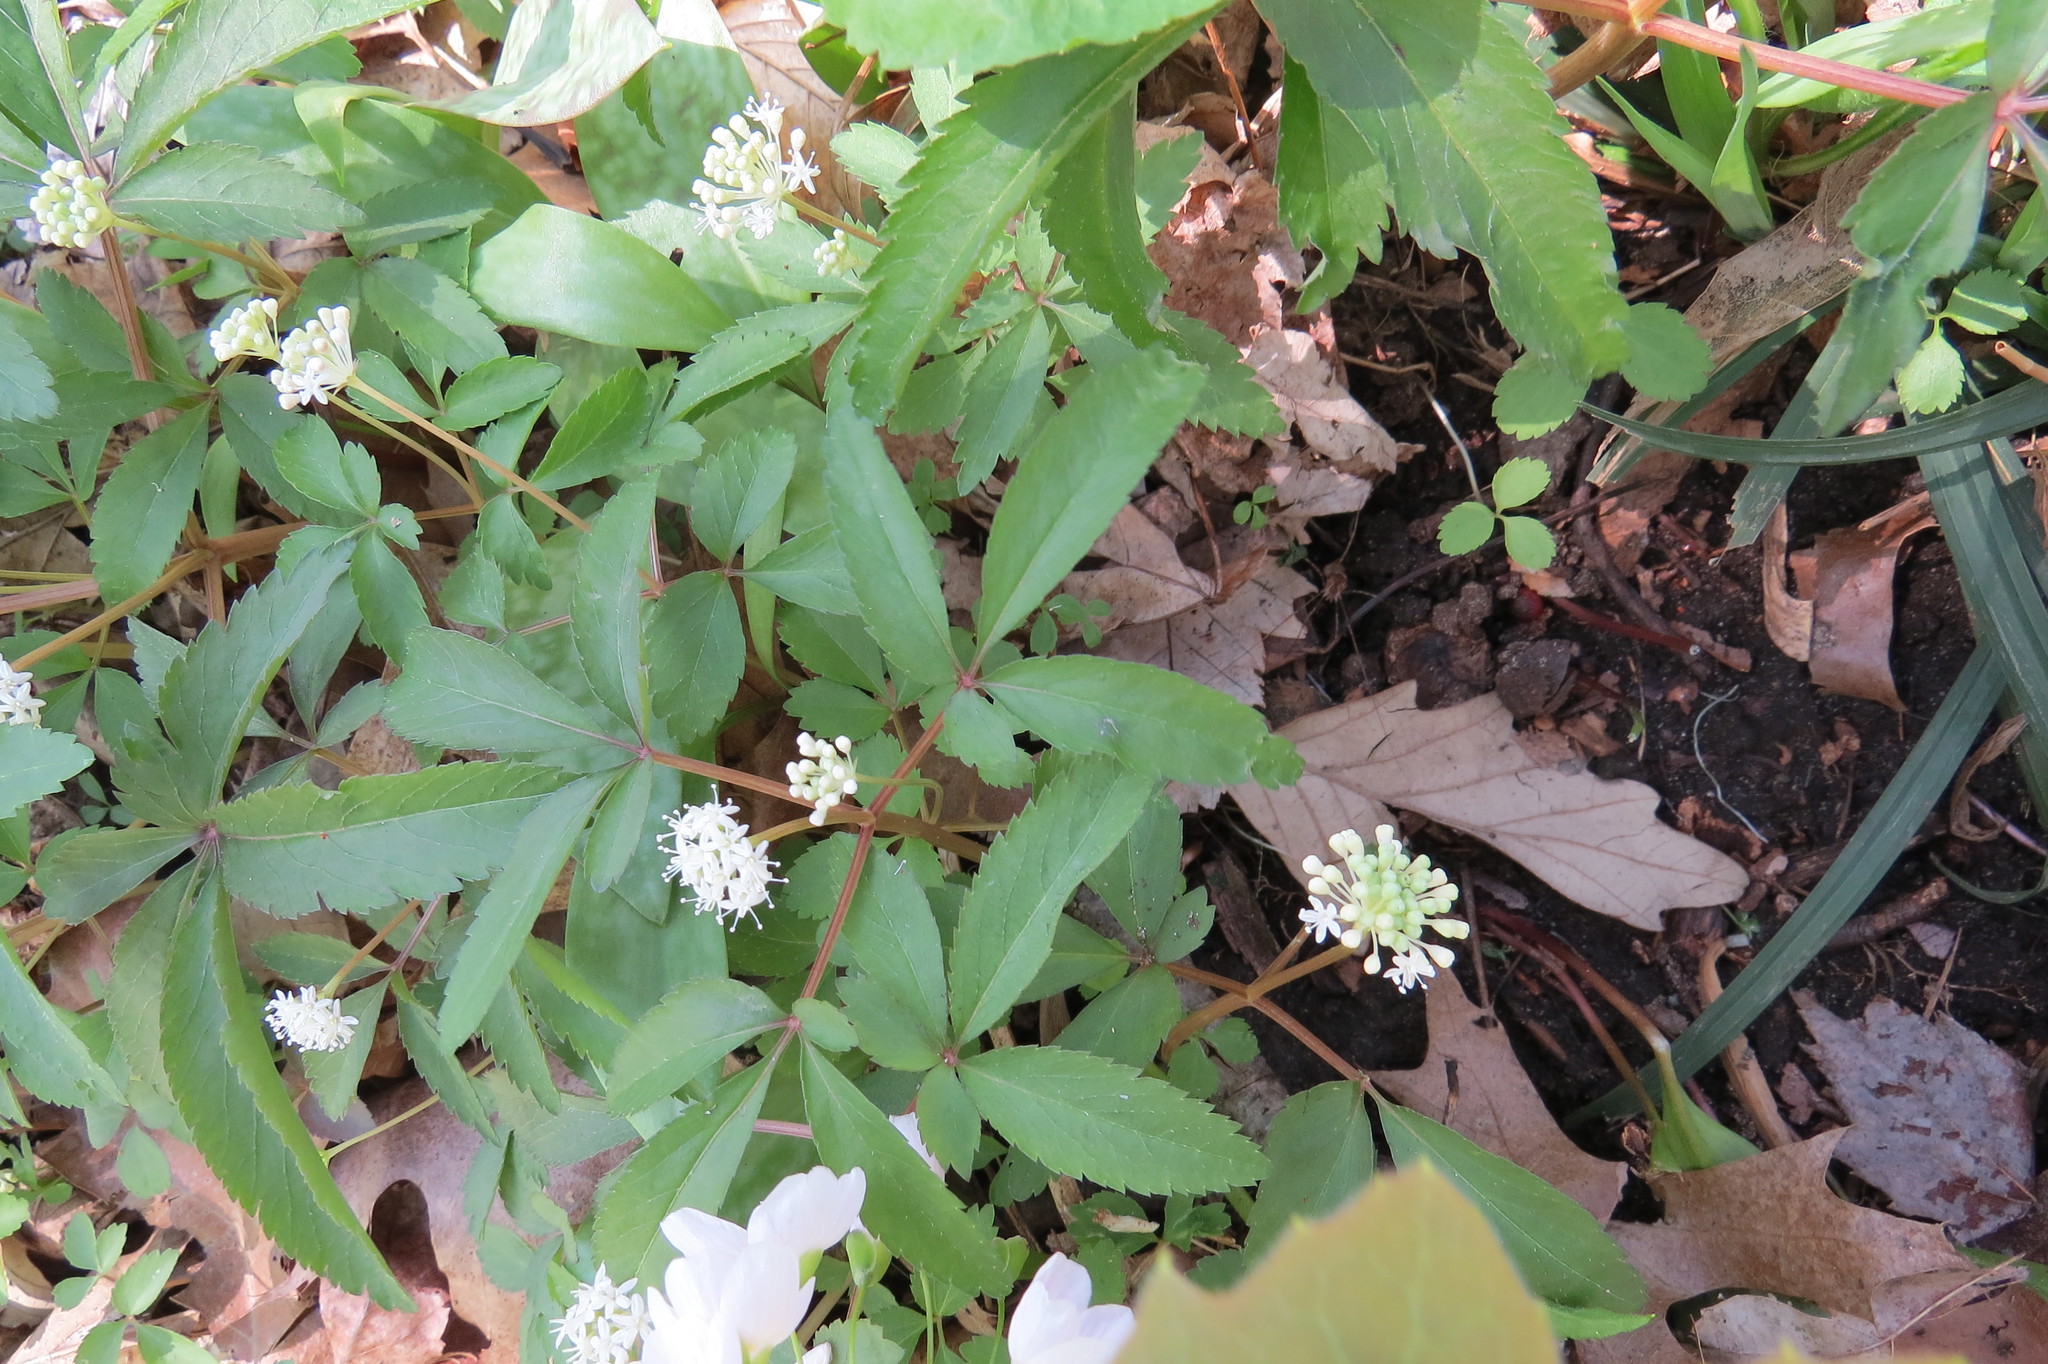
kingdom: Plantae
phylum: Tracheophyta
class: Magnoliopsida
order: Apiales
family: Araliaceae
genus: Panax
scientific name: Panax trifolius
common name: Dwarf ginseng
